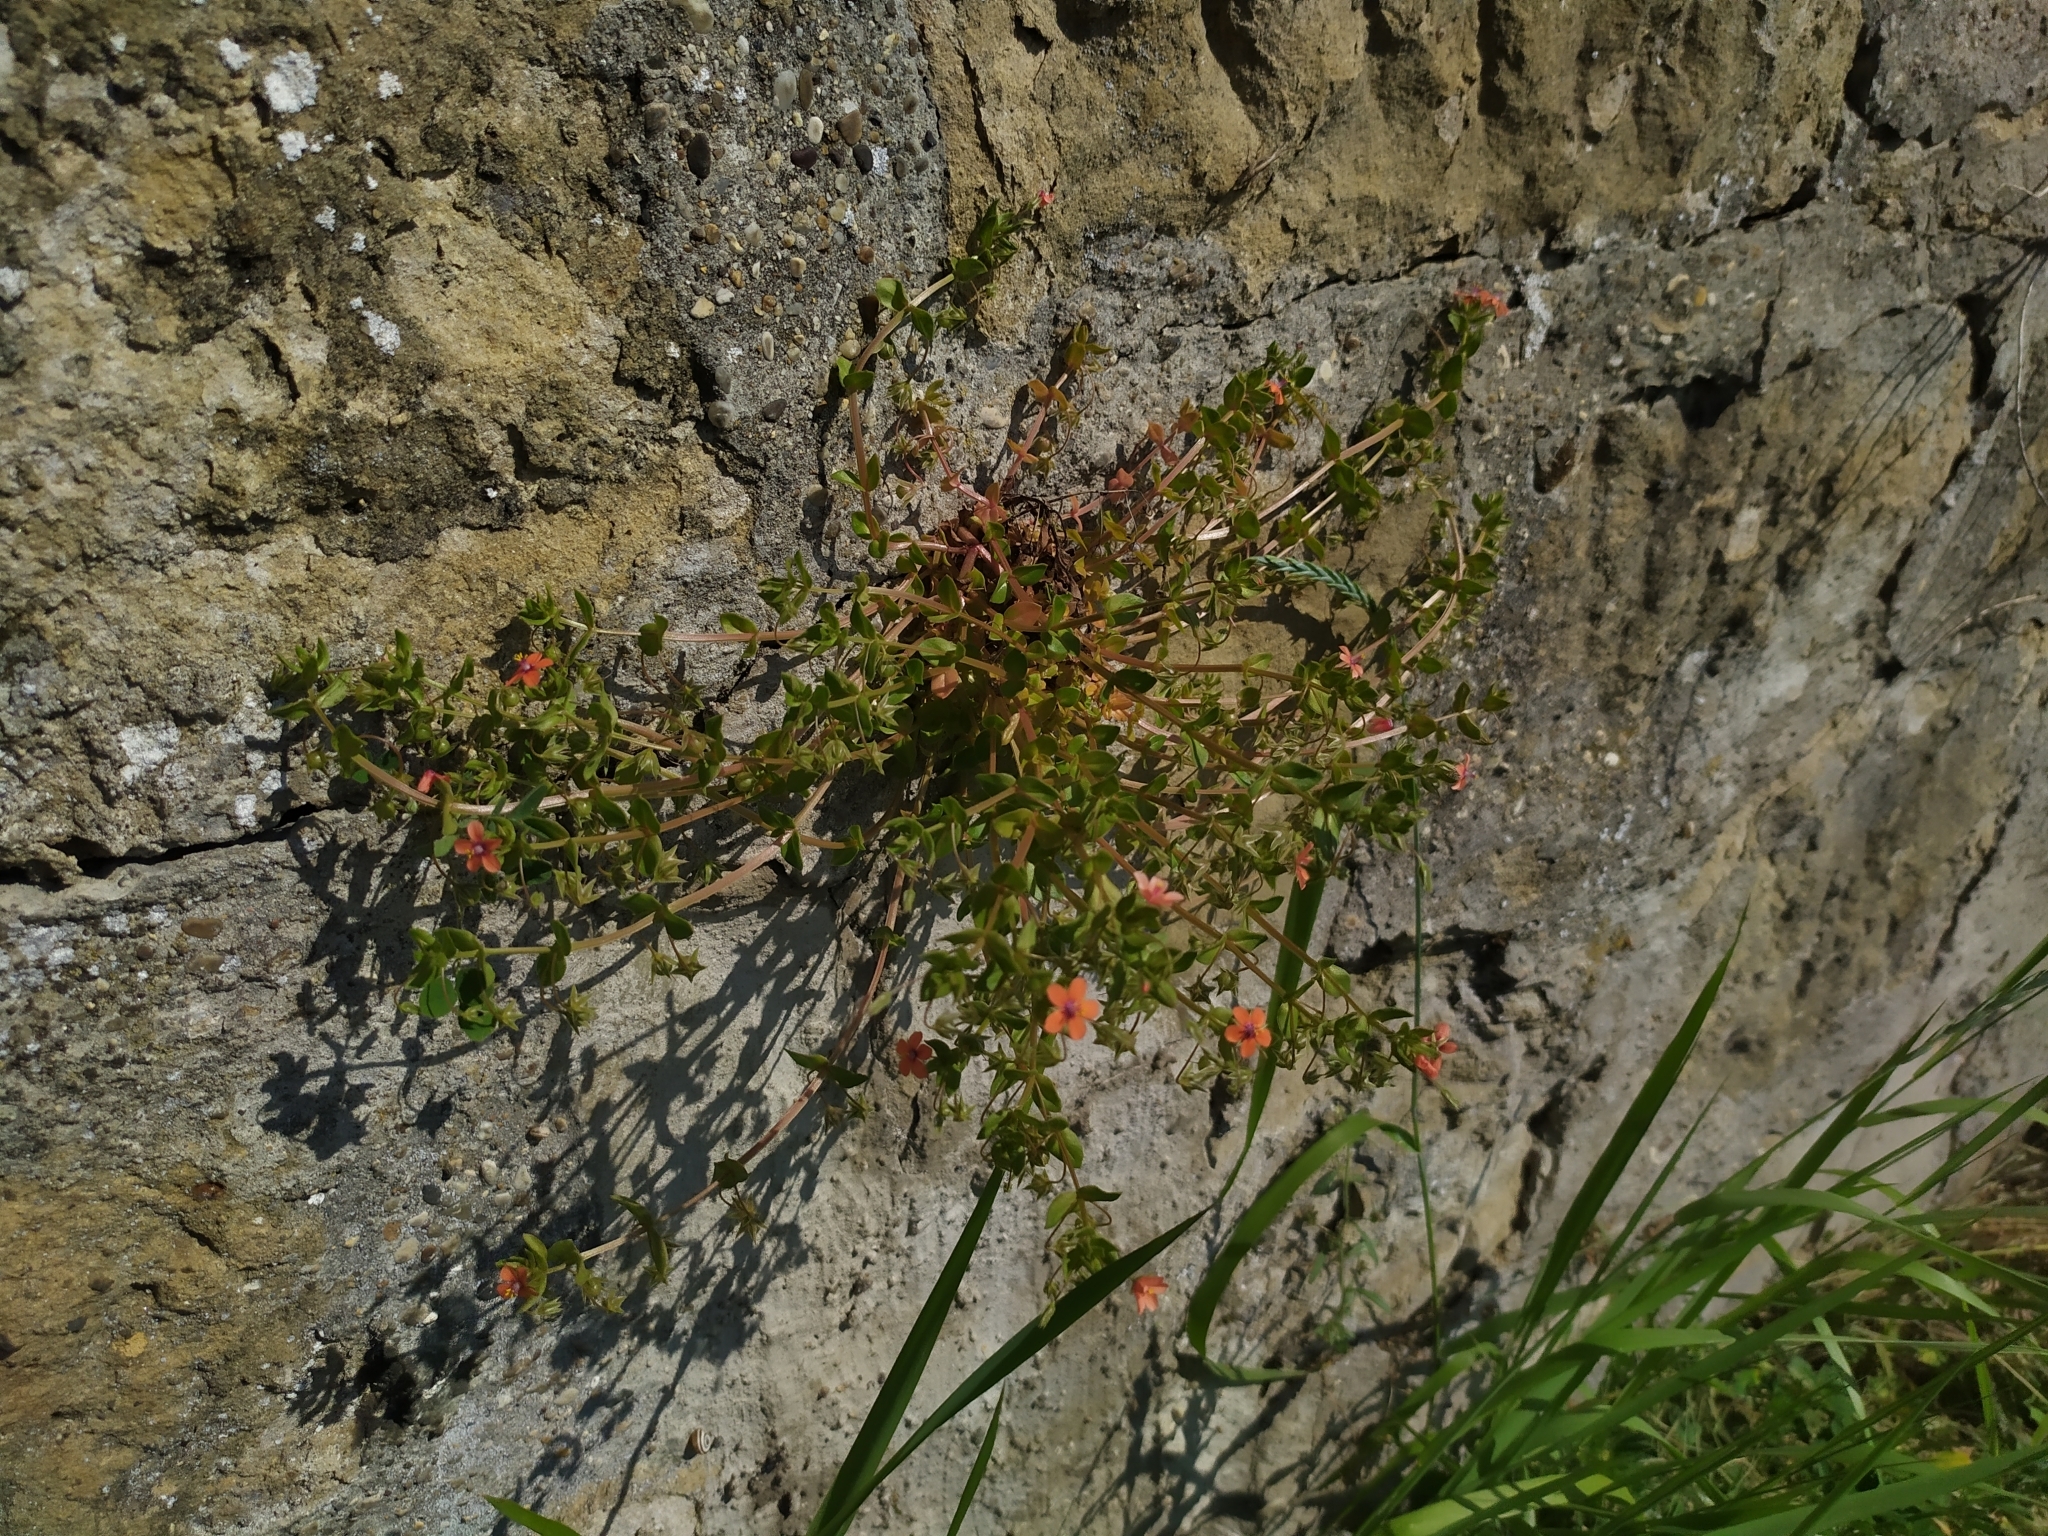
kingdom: Plantae
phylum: Tracheophyta
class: Magnoliopsida
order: Ericales
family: Primulaceae
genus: Lysimachia
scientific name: Lysimachia arvensis
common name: Scarlet pimpernel
